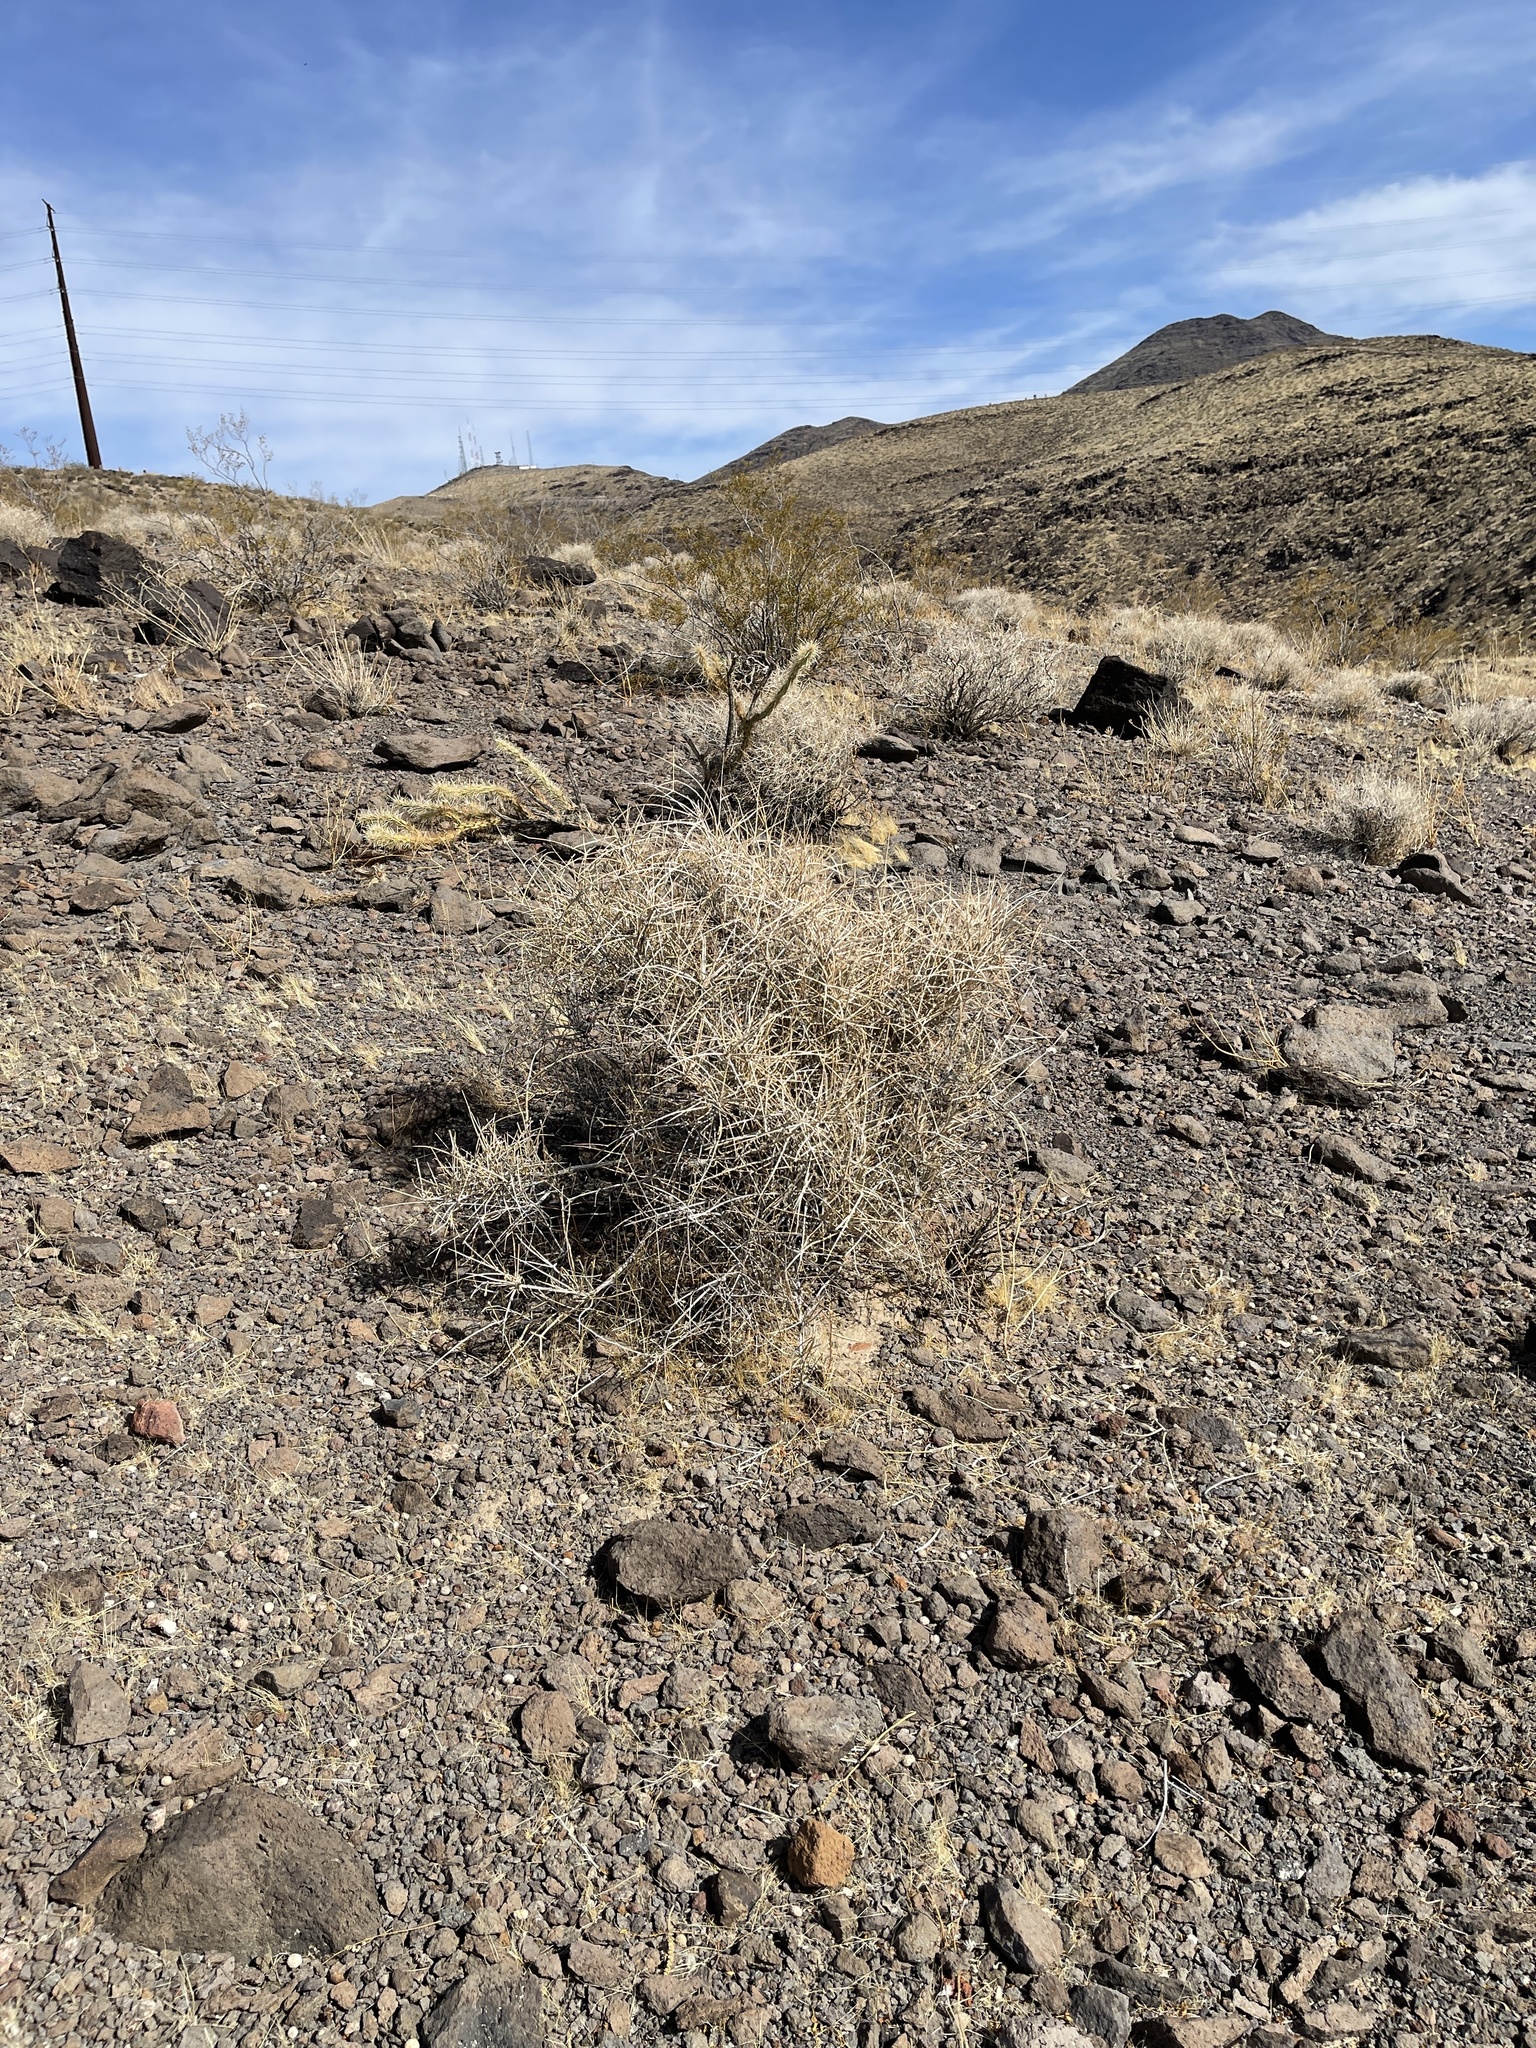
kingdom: Plantae
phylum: Tracheophyta
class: Gnetopsida
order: Ephedrales
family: Ephedraceae
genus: Ephedra
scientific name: Ephedra nevadensis
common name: Gray ephedra
